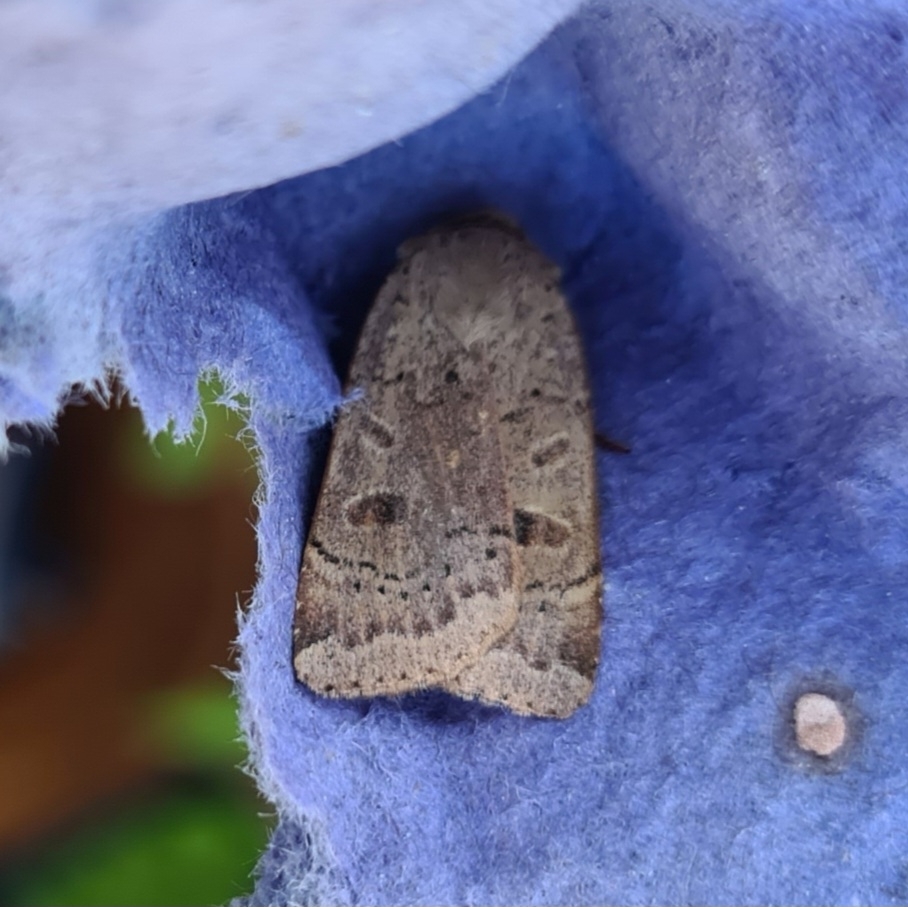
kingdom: Animalia
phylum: Arthropoda
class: Insecta
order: Lepidoptera
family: Noctuidae
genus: Noctua
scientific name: Noctua comes
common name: Lesser yellow underwing
